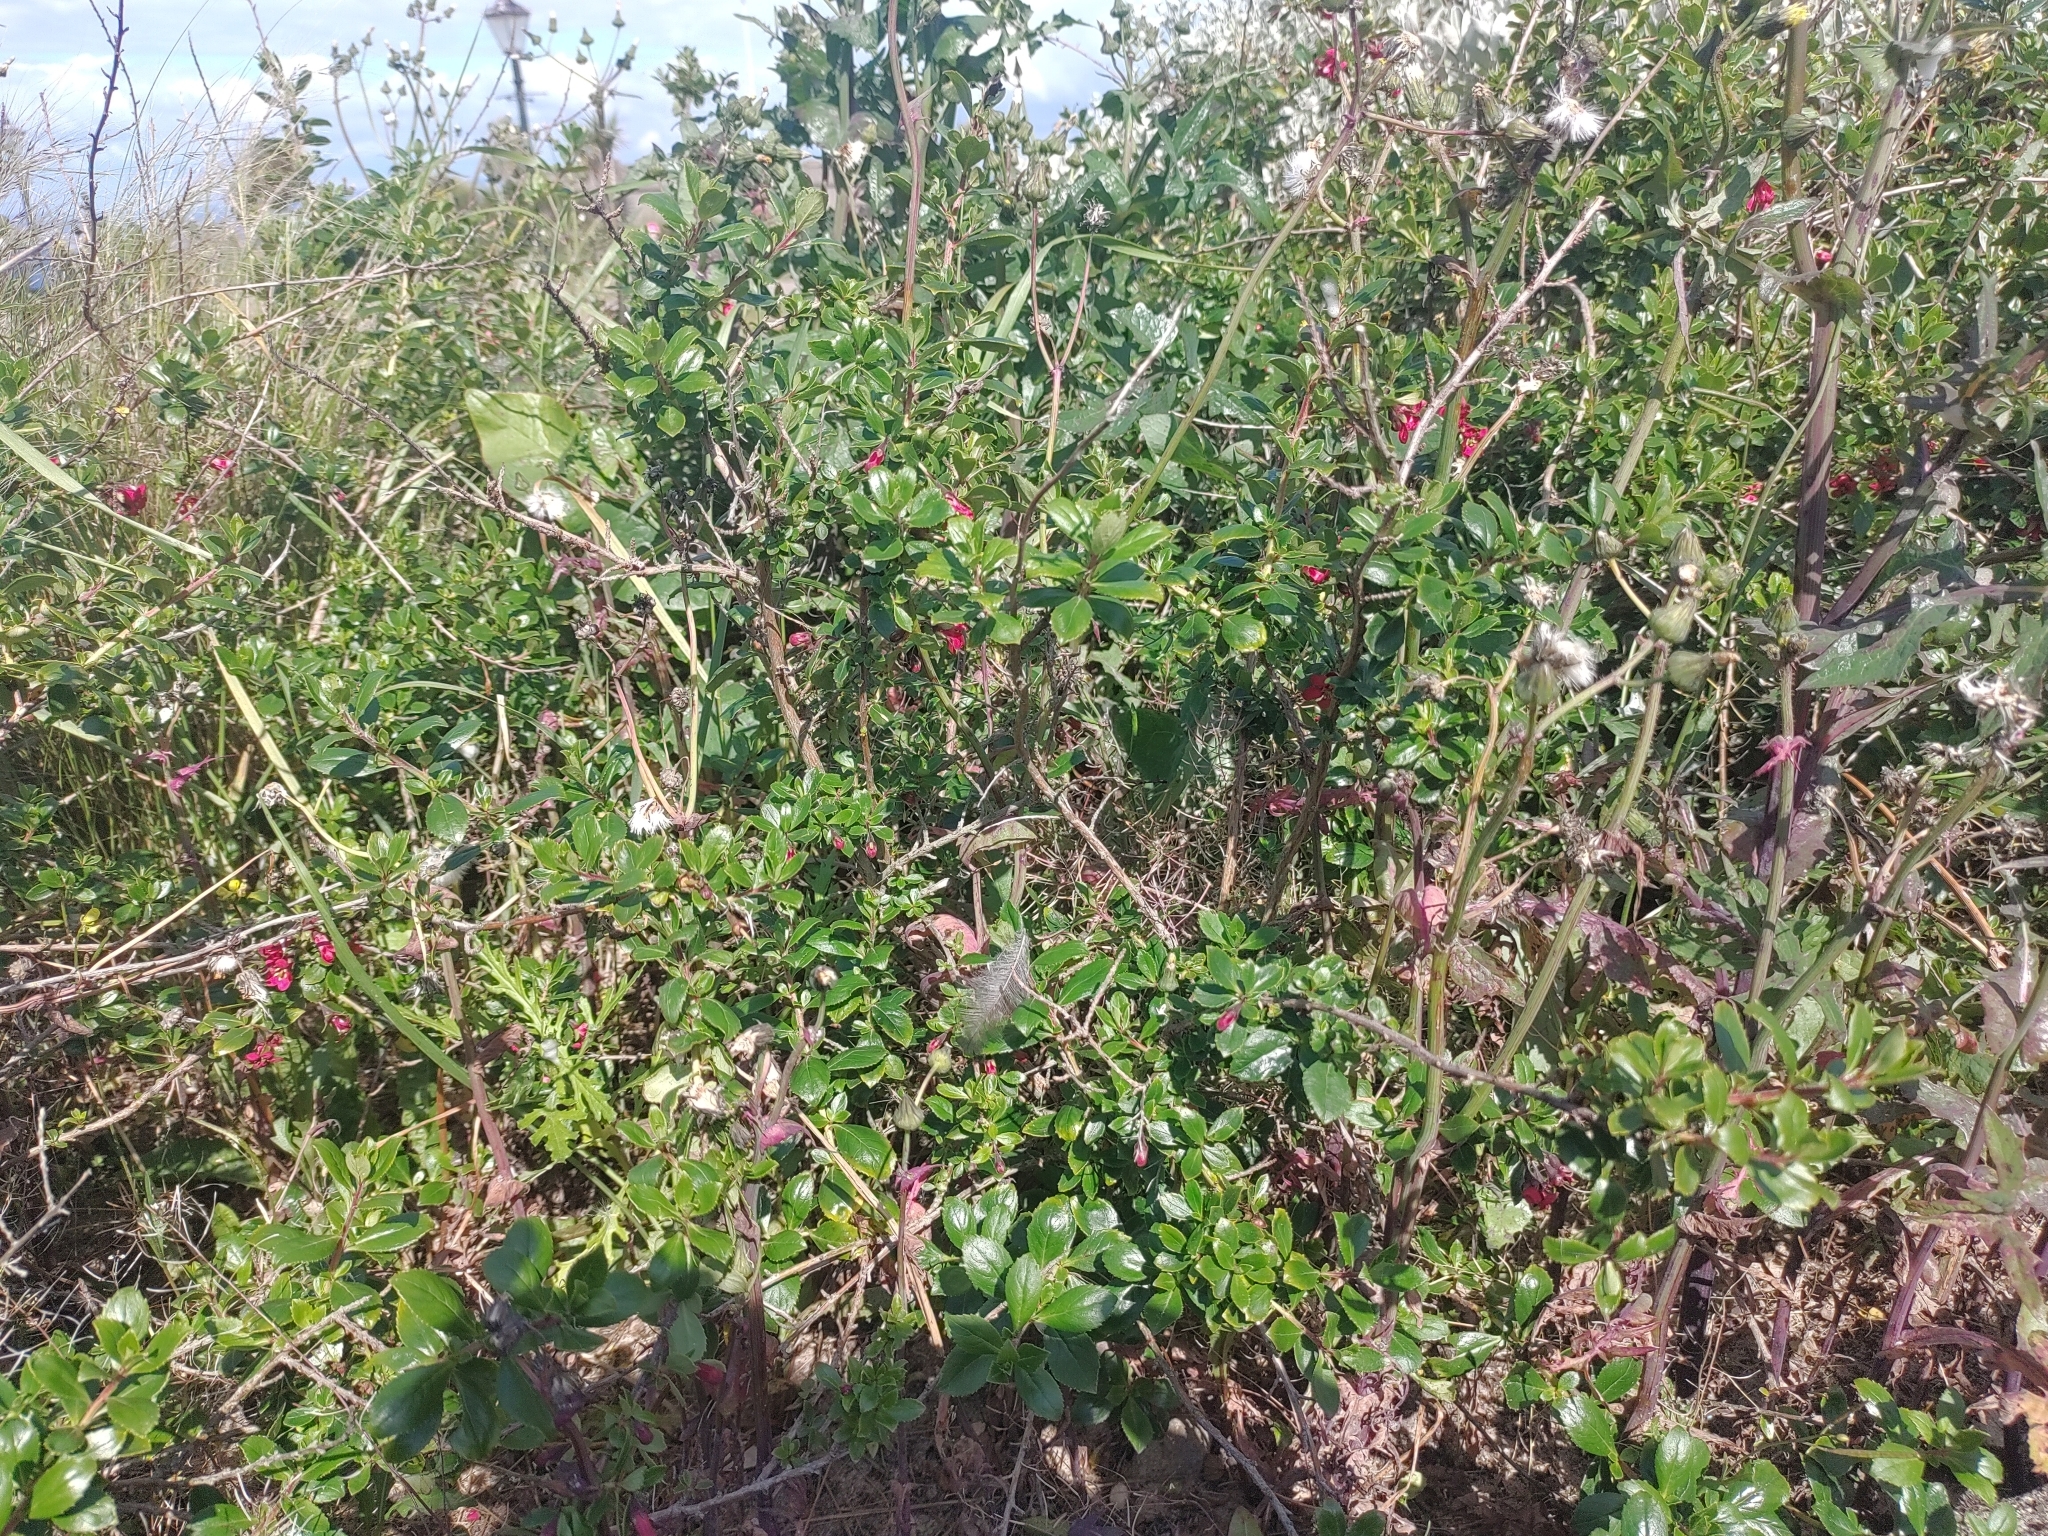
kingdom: Plantae
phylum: Tracheophyta
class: Magnoliopsida
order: Escalloniales
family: Escalloniaceae
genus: Escallonia
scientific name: Escallonia rubra
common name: Redclaws
